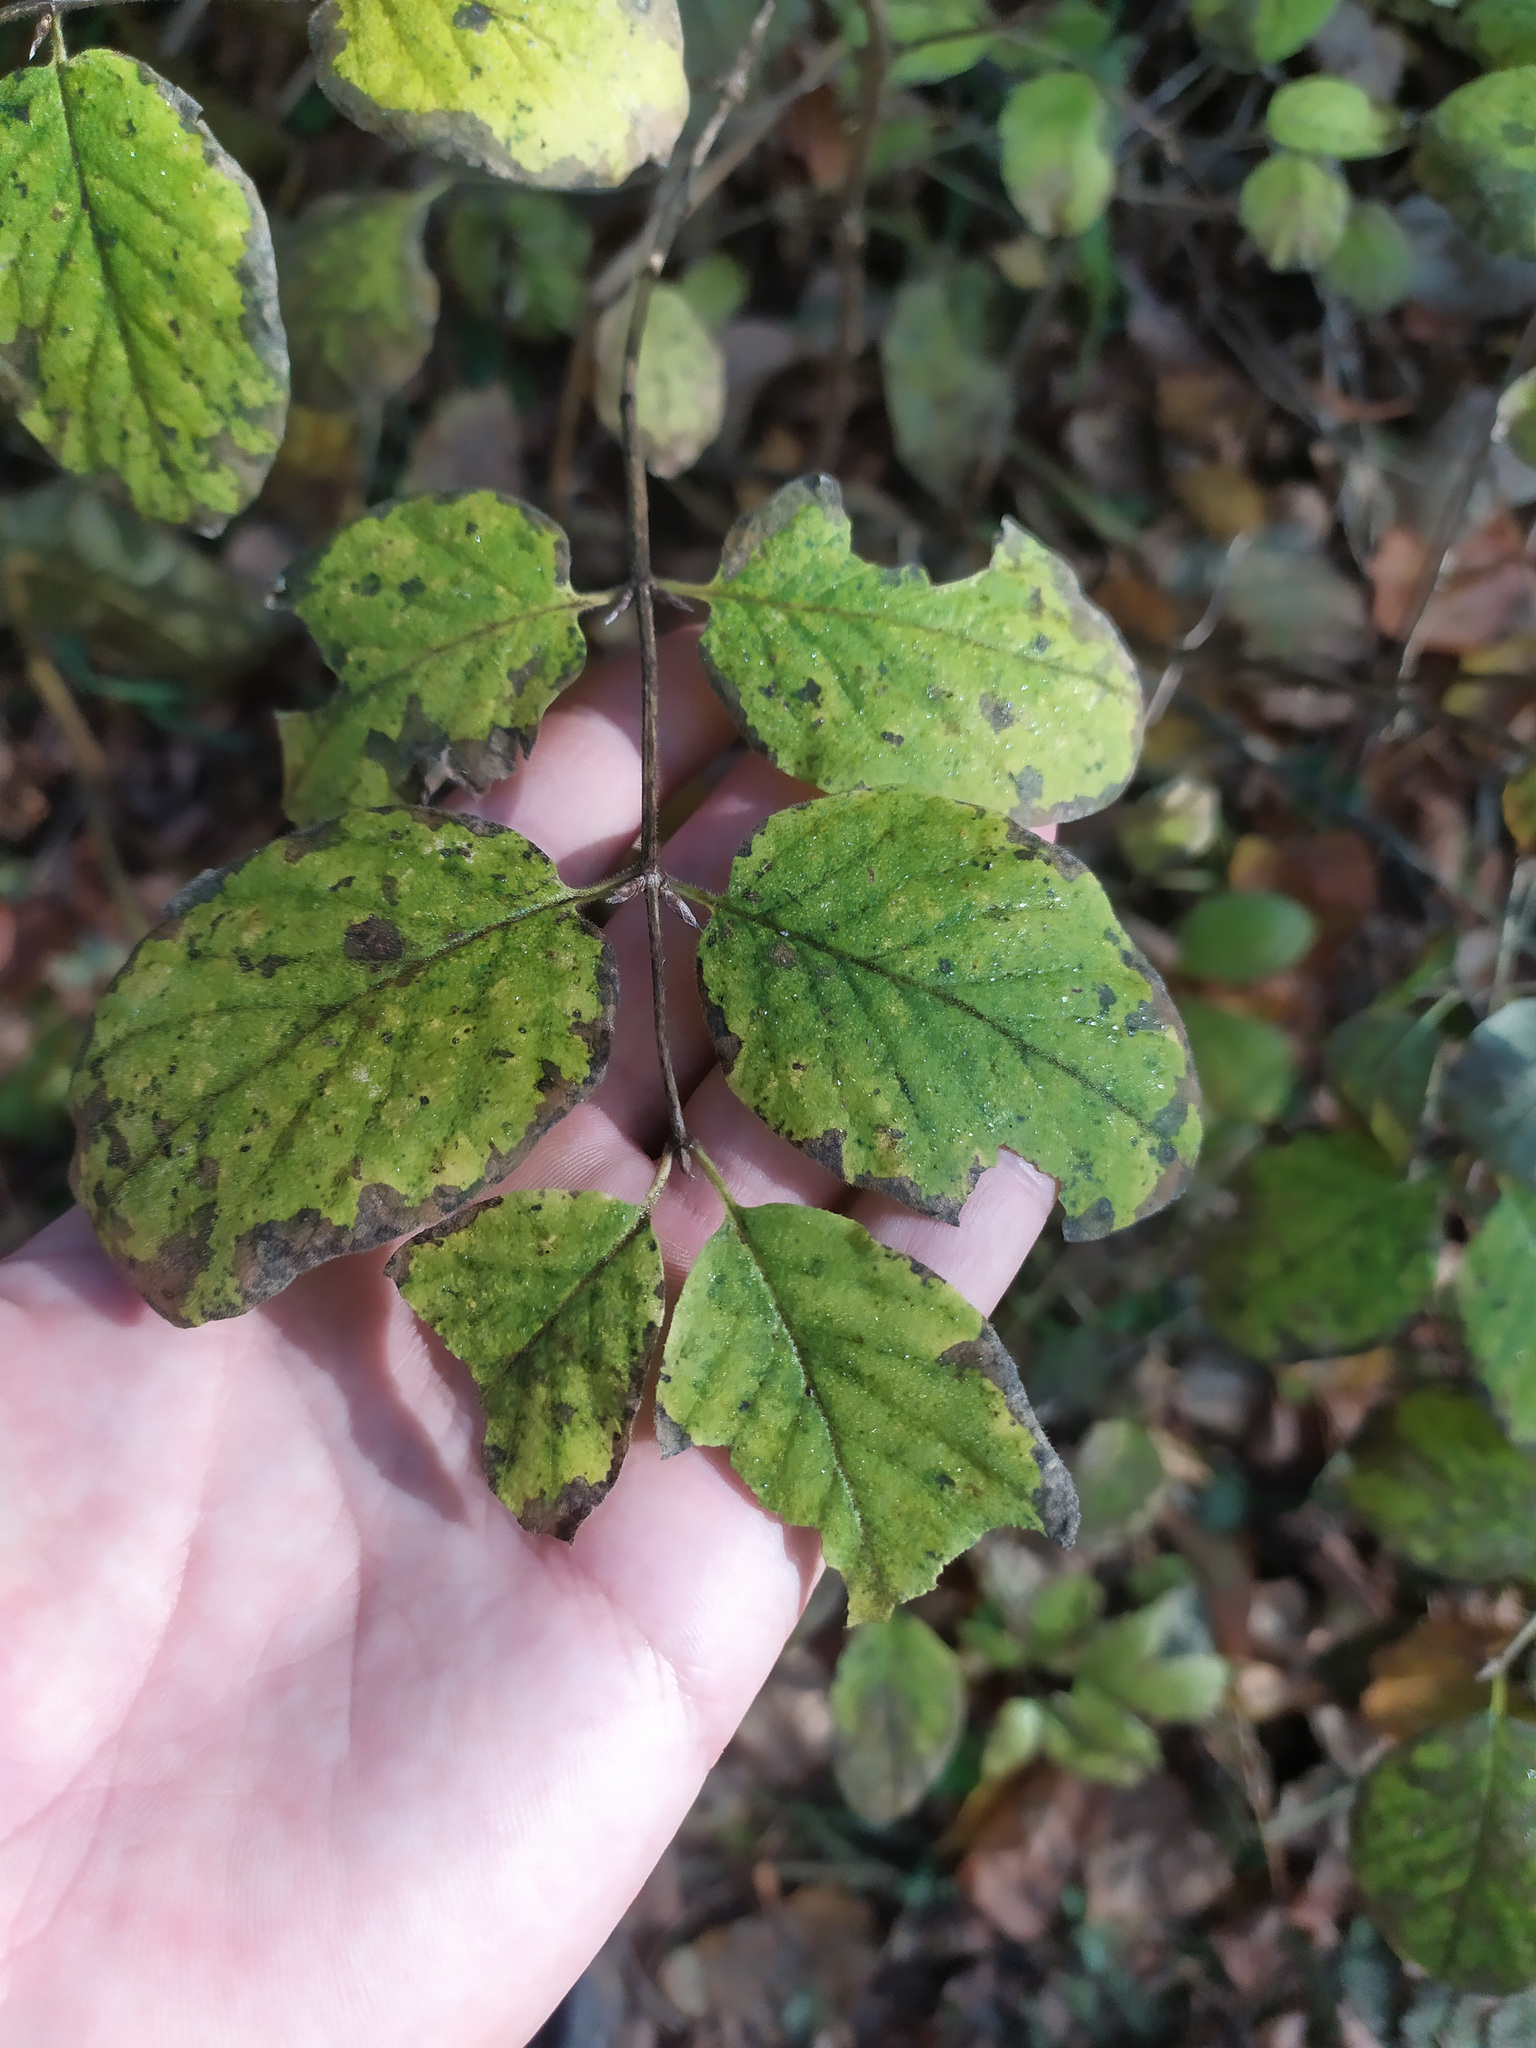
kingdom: Plantae
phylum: Tracheophyta
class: Magnoliopsida
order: Dipsacales
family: Caprifoliaceae
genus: Lonicera
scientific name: Lonicera xylosteum
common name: Fly honeysuckle
